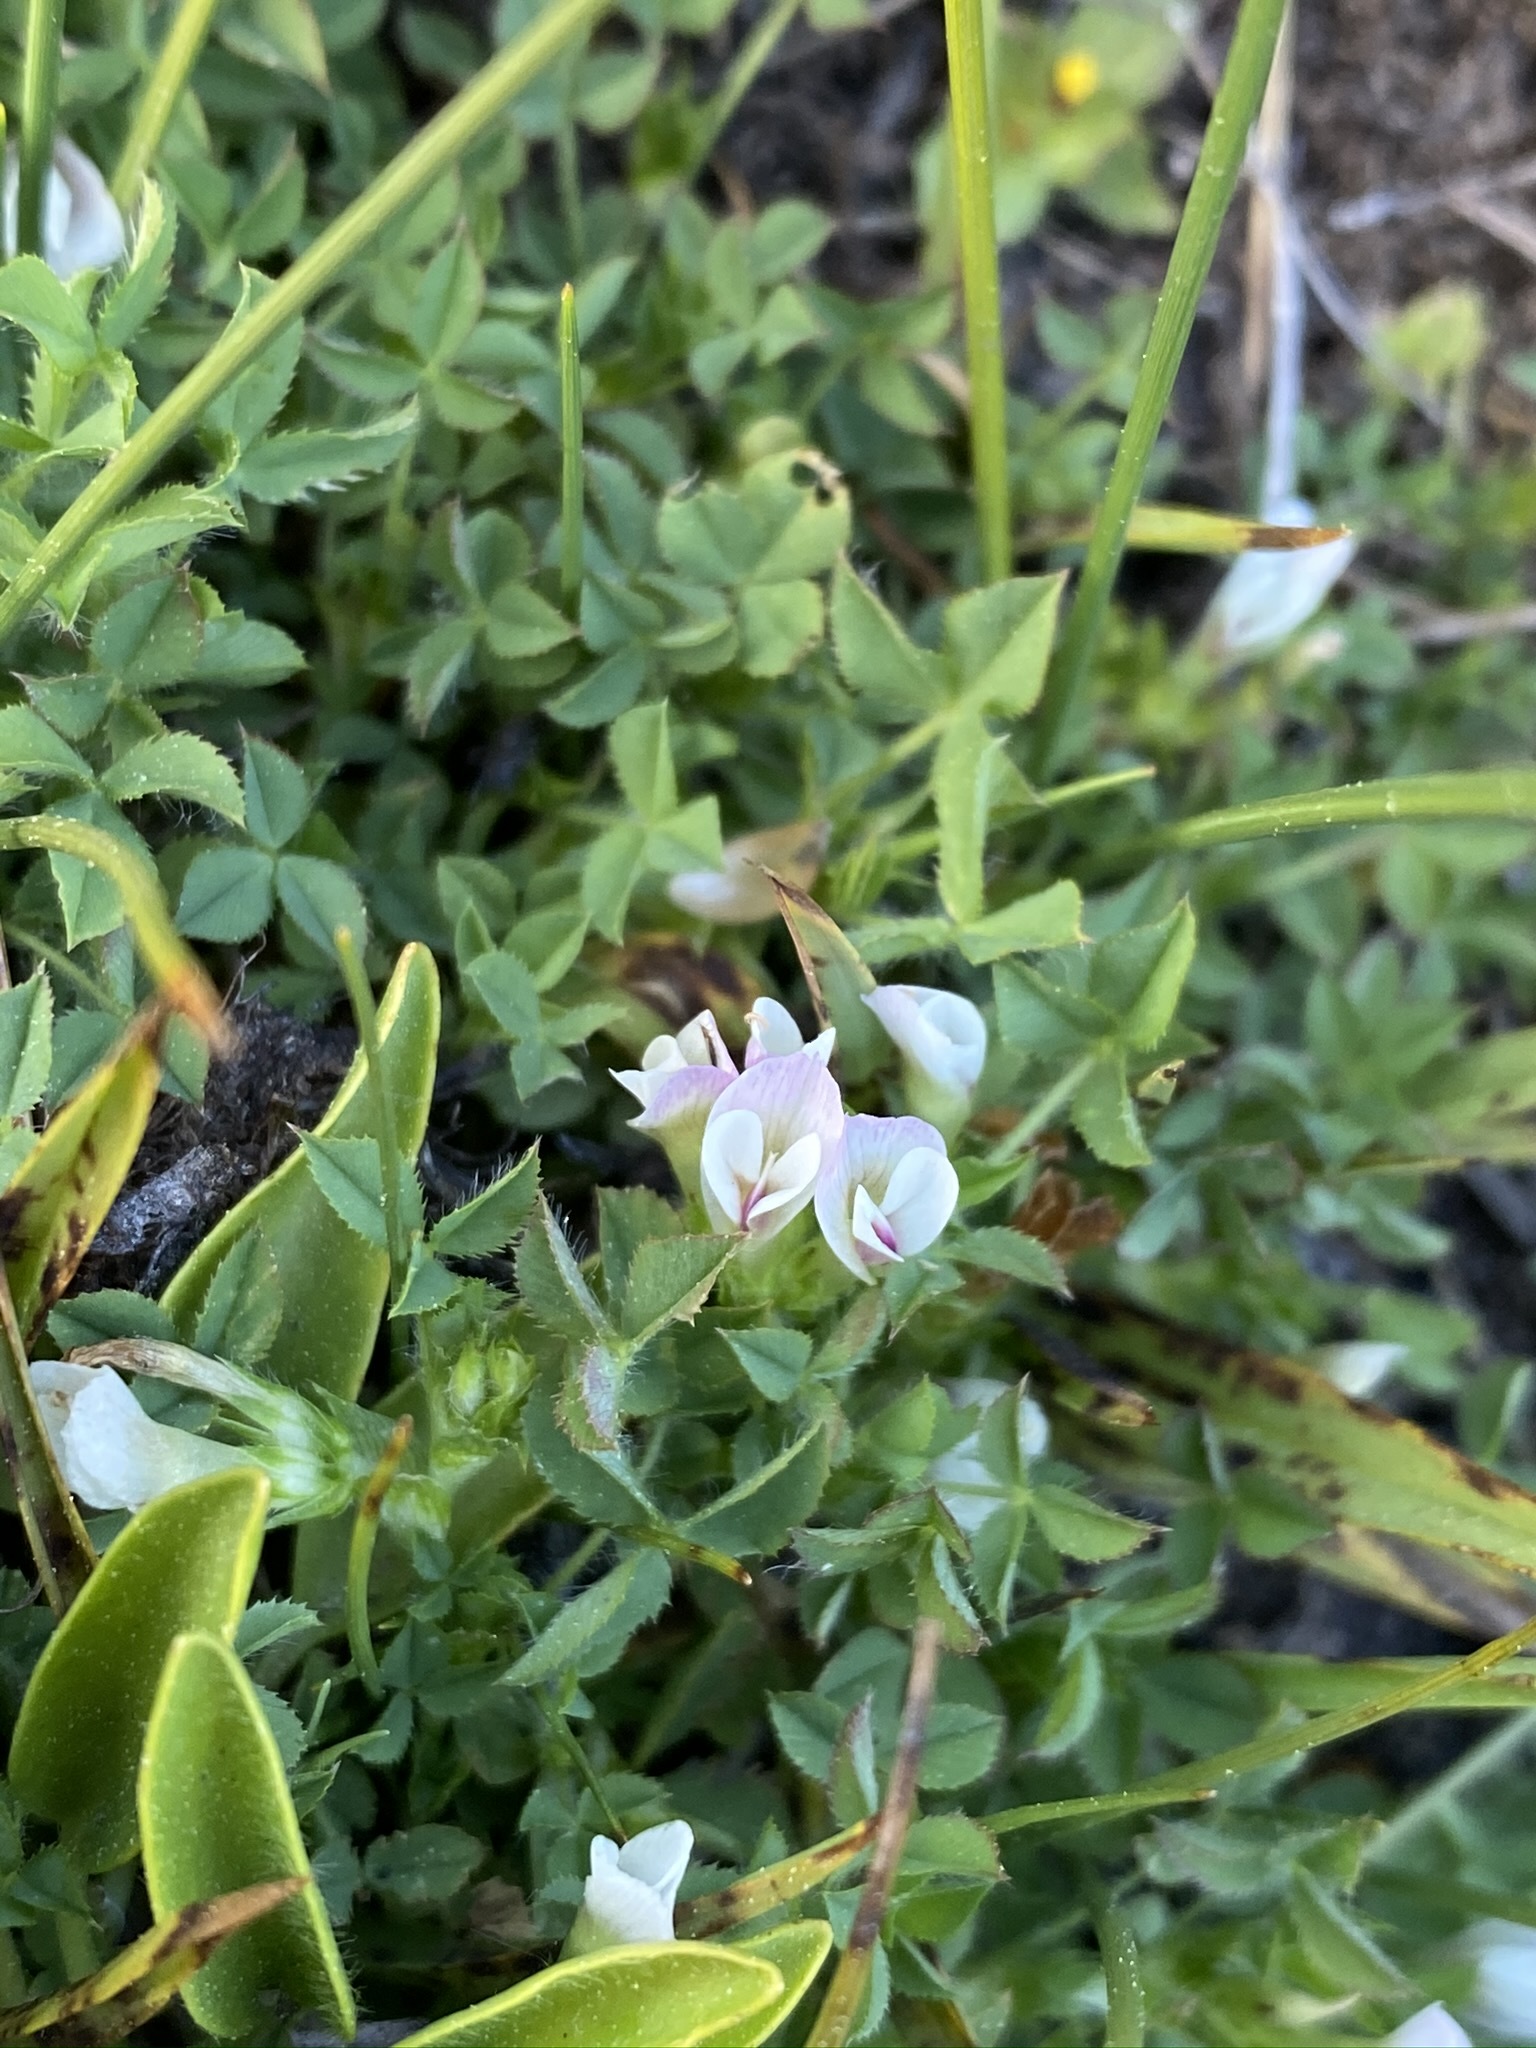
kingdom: Plantae
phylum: Tracheophyta
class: Magnoliopsida
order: Fabales
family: Fabaceae
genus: Trifolium
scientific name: Trifolium monanthum
